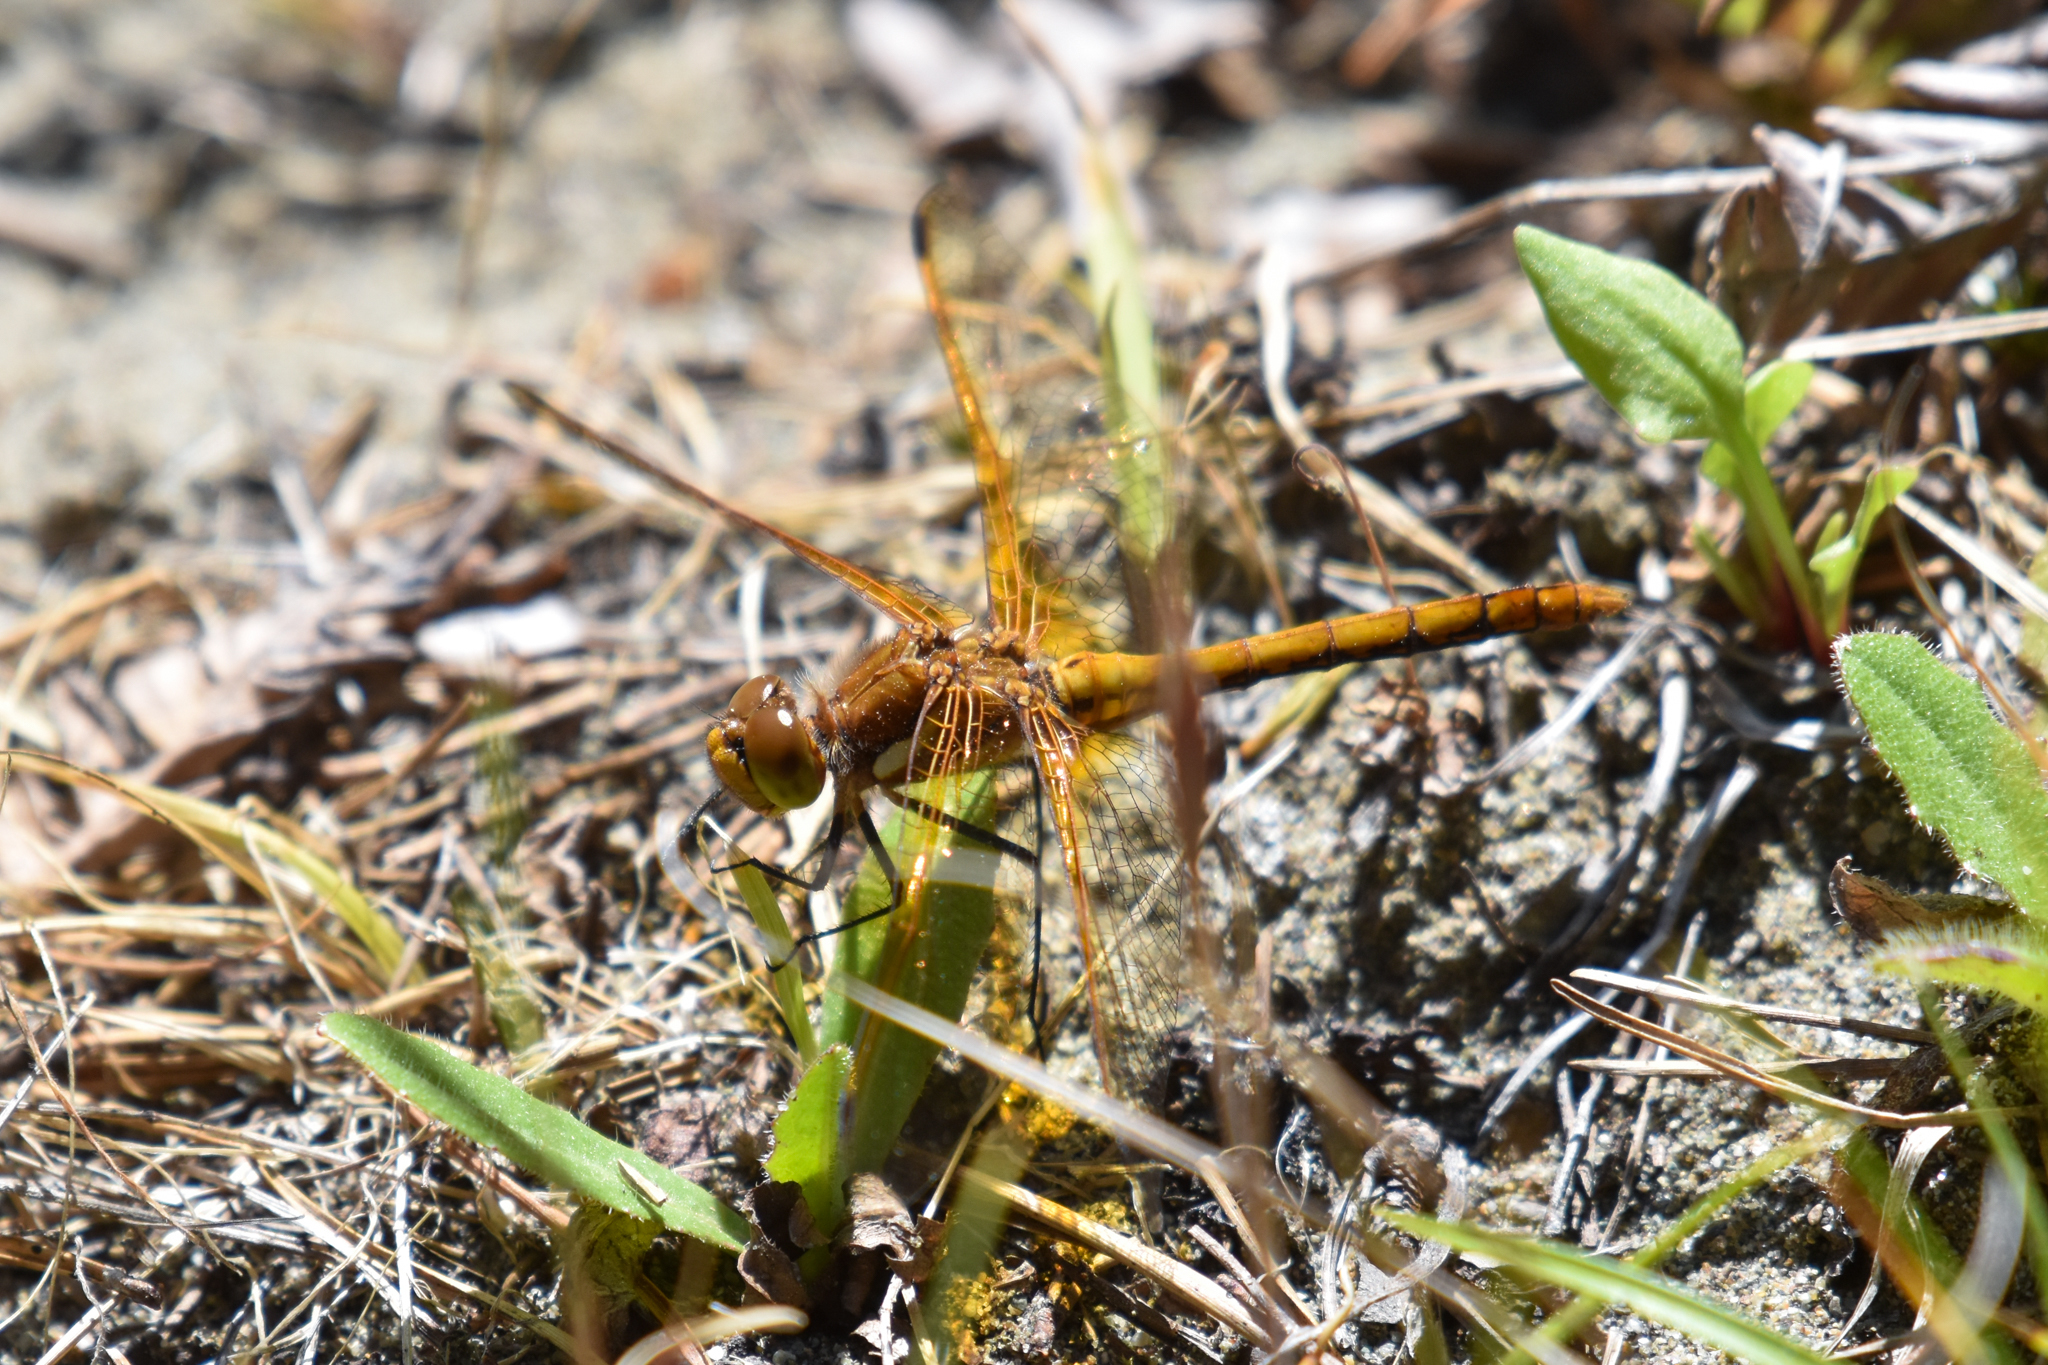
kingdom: Animalia
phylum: Arthropoda
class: Insecta
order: Odonata
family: Libellulidae
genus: Sympetrum
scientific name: Sympetrum madidum
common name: Red-veined meadowhawk
